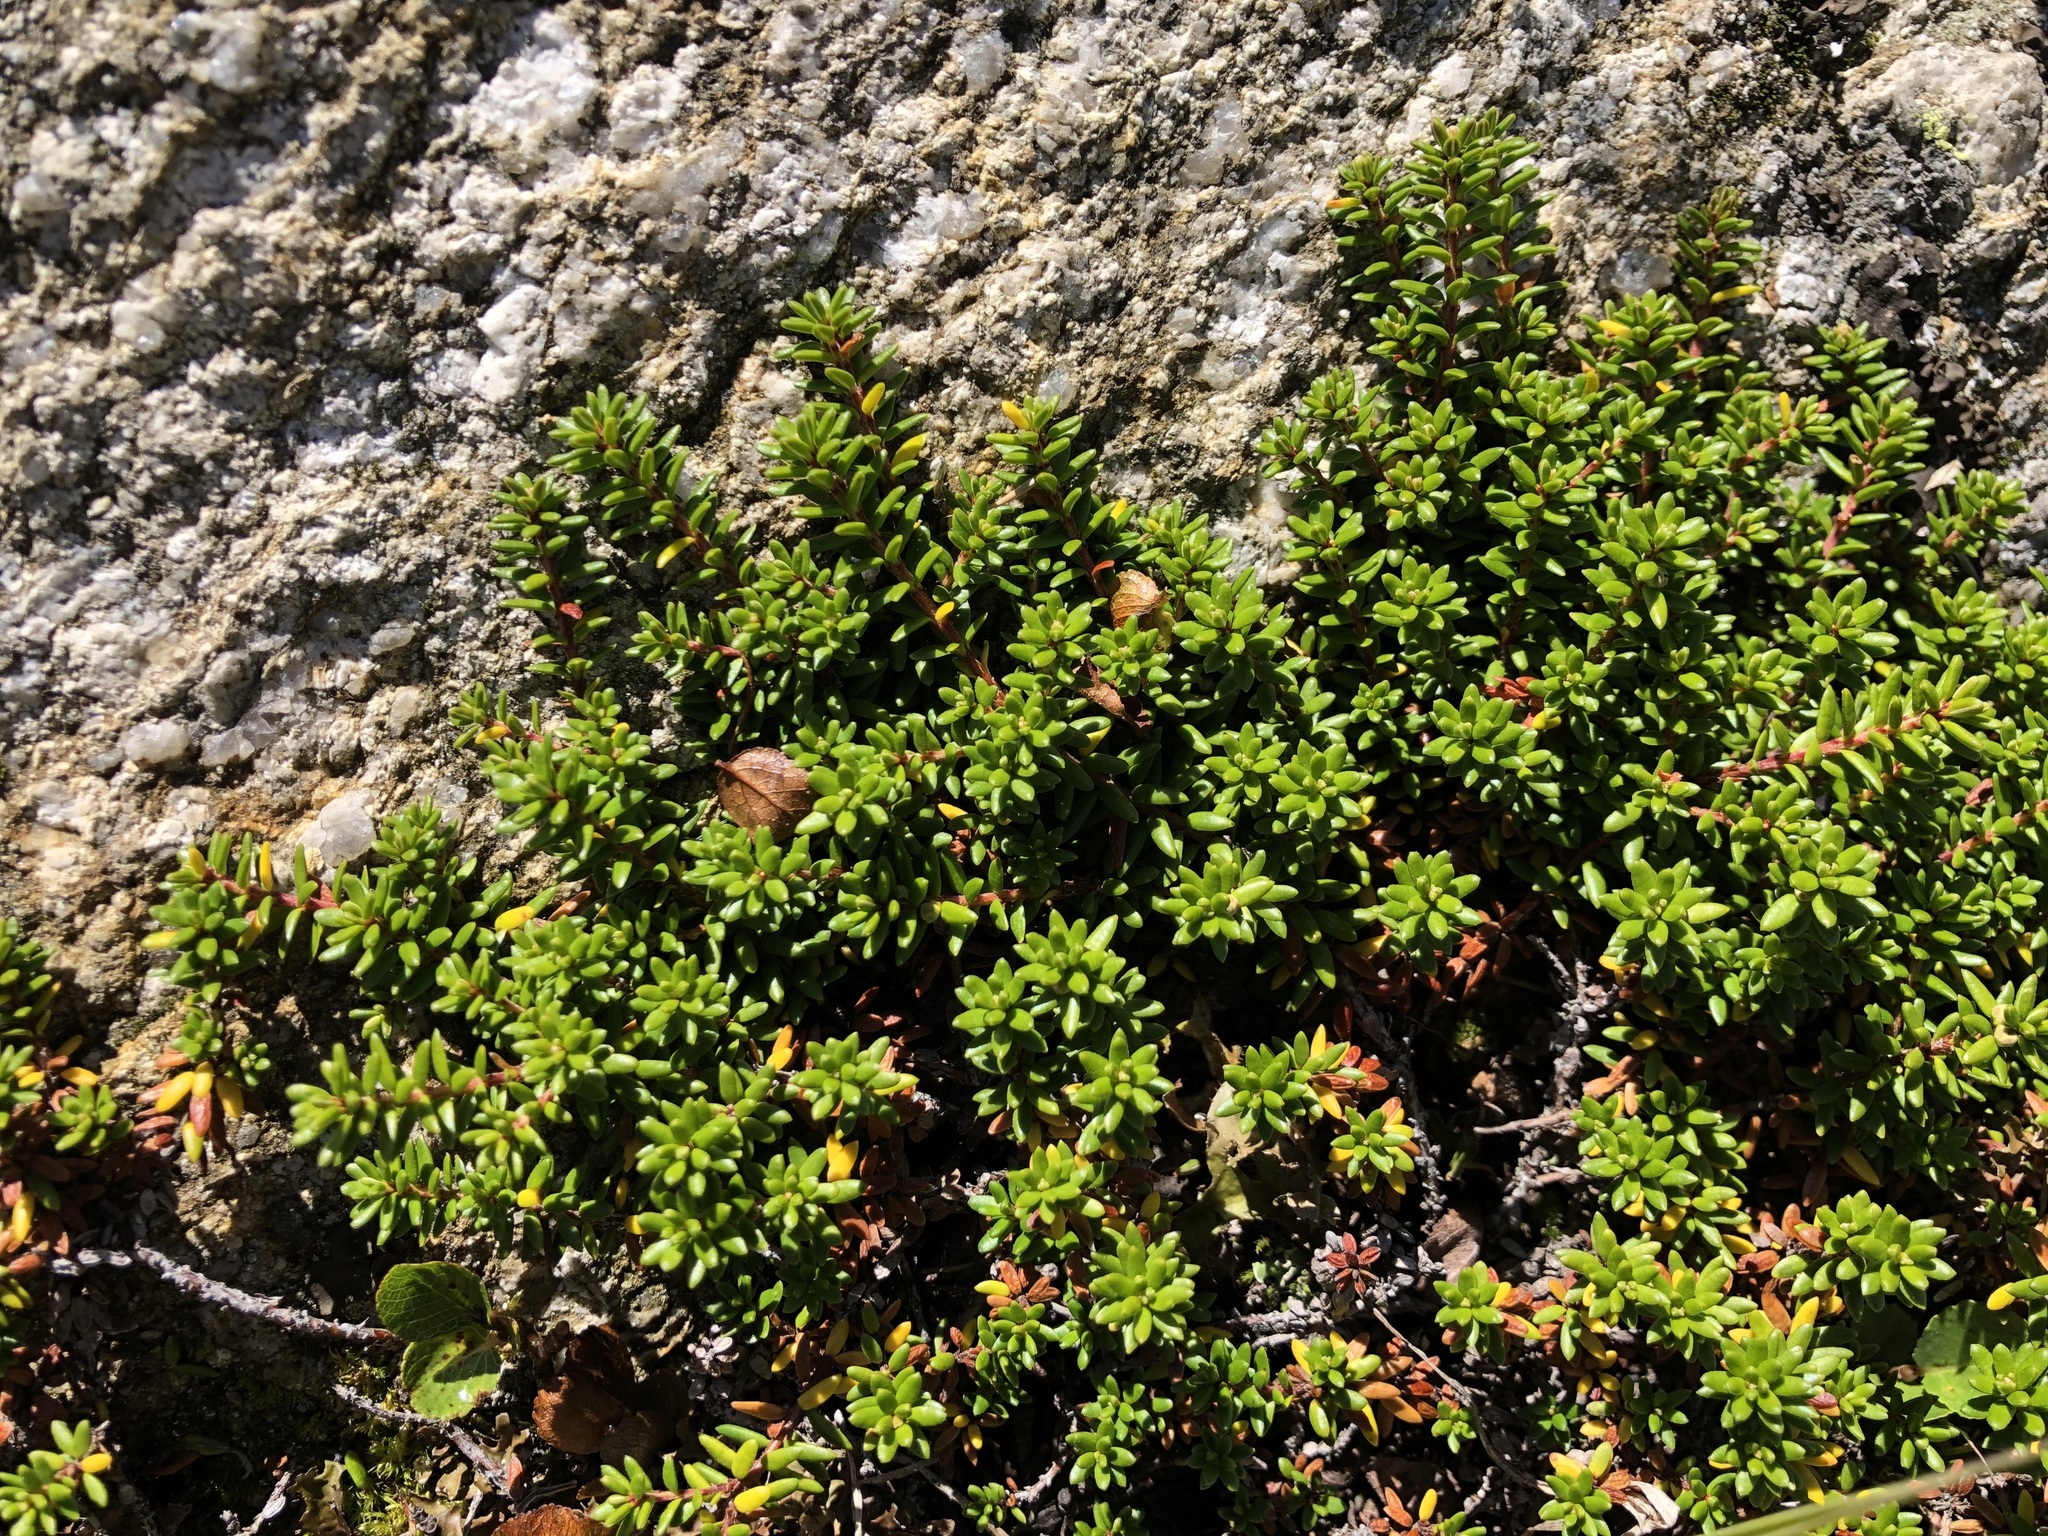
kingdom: Plantae
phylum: Tracheophyta
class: Magnoliopsida
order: Ericales
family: Ericaceae
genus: Empetrum
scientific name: Empetrum nigrum
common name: Black crowberry
